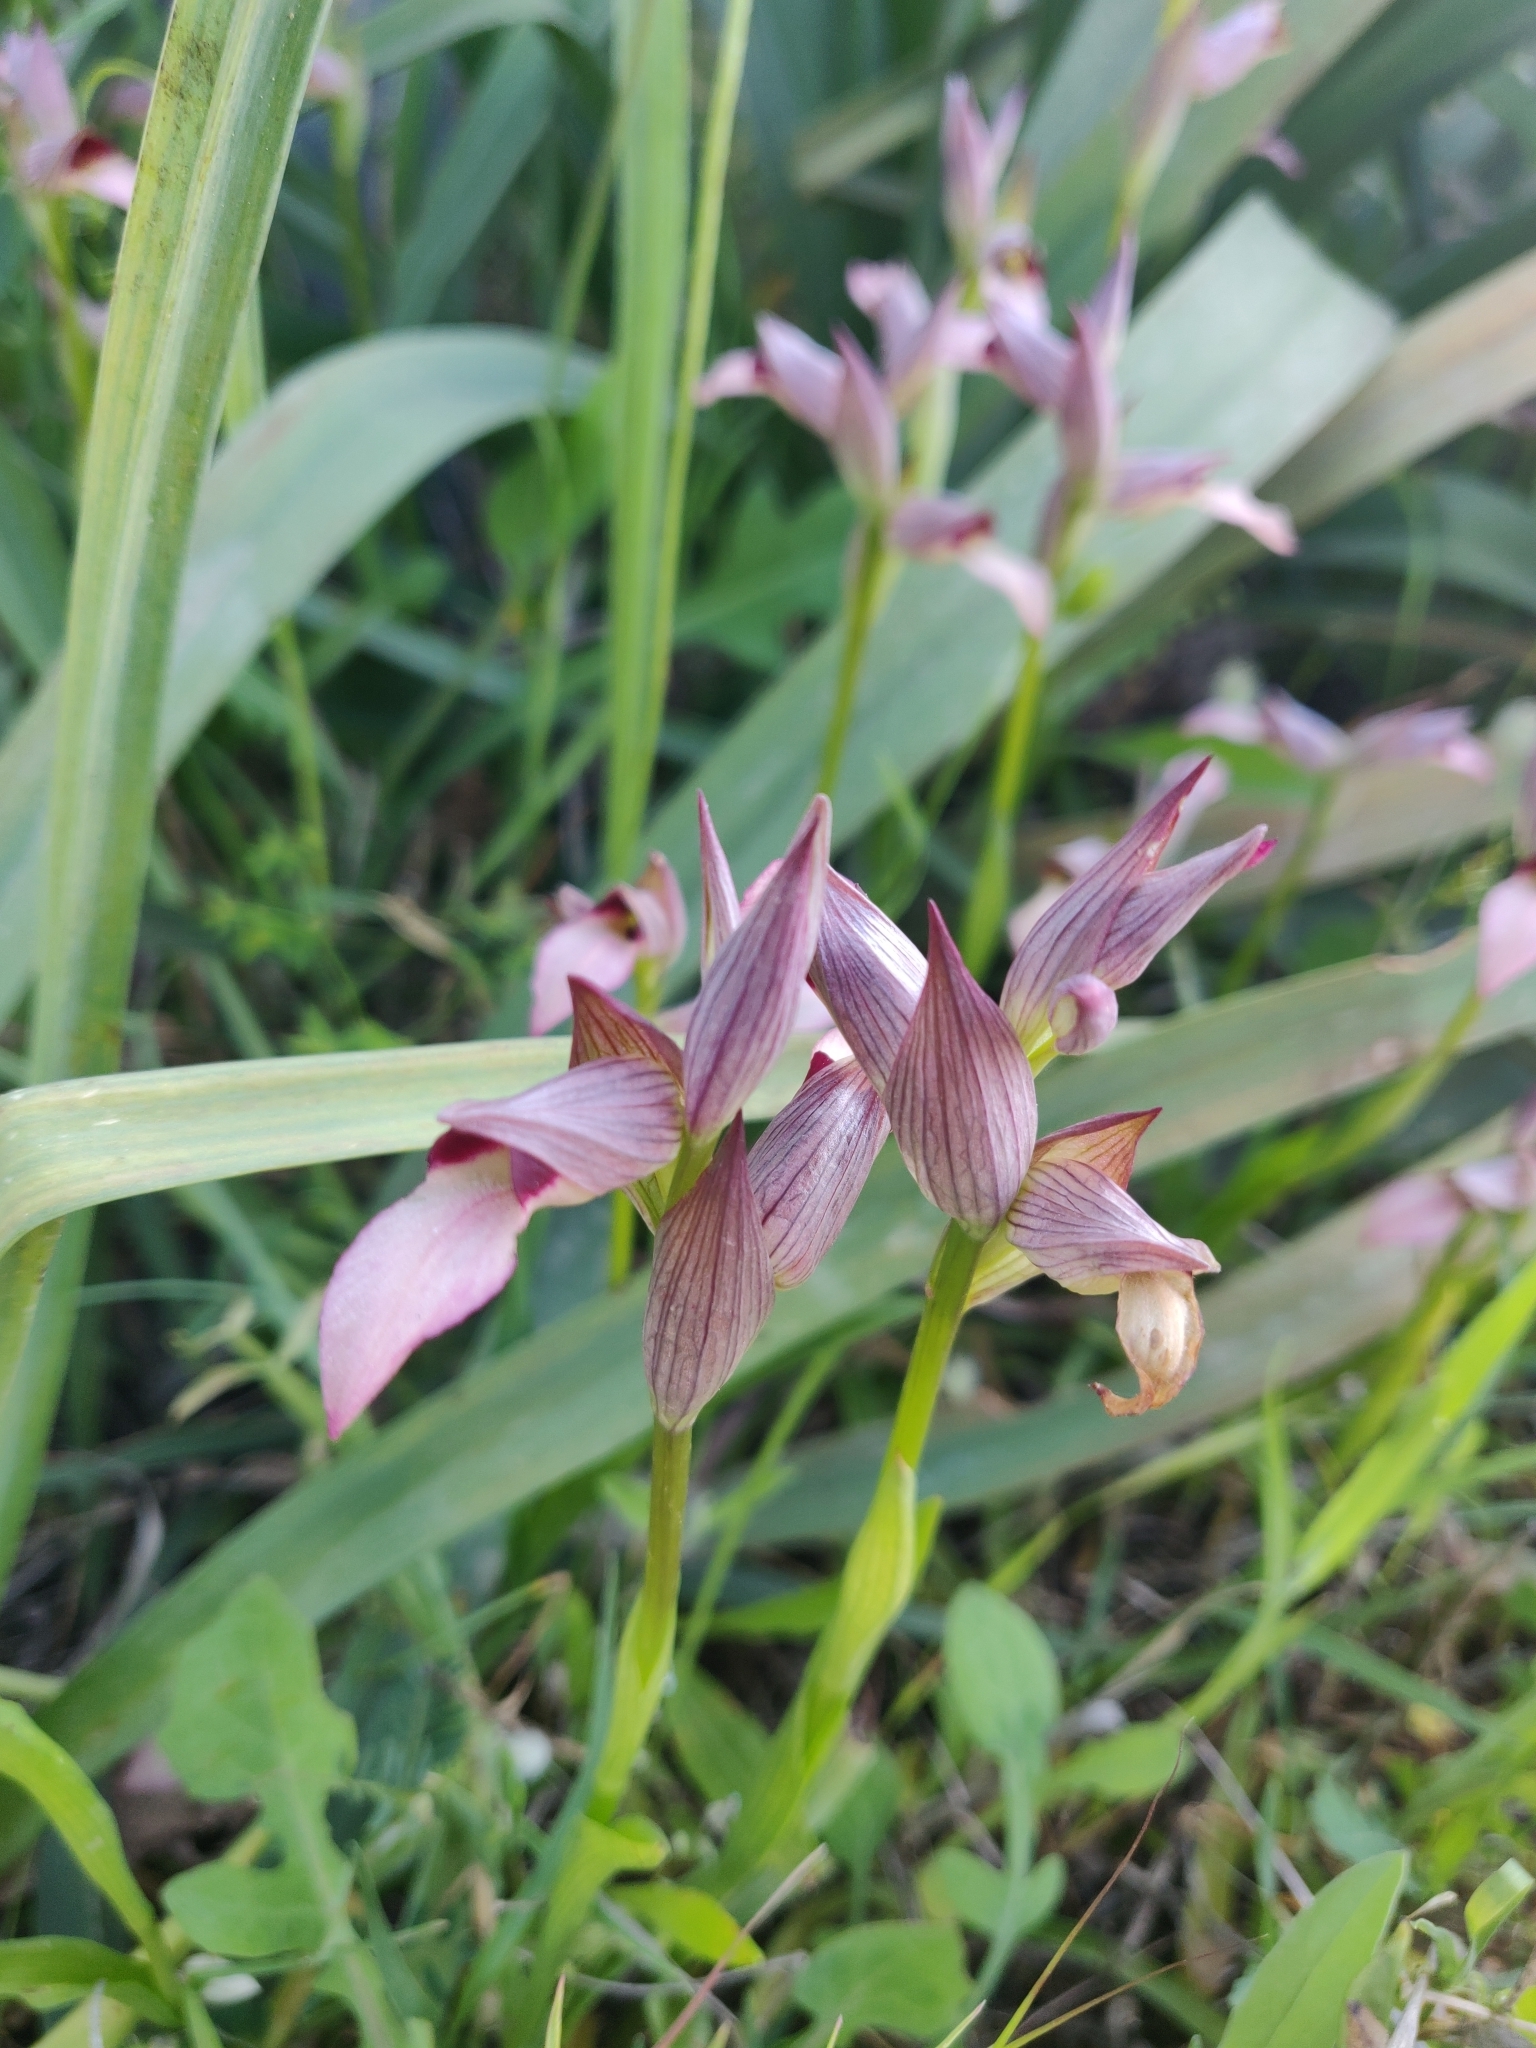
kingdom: Plantae
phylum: Tracheophyta
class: Liliopsida
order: Asparagales
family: Orchidaceae
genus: Serapias
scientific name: Serapias lingua
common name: Tongue-orchid
